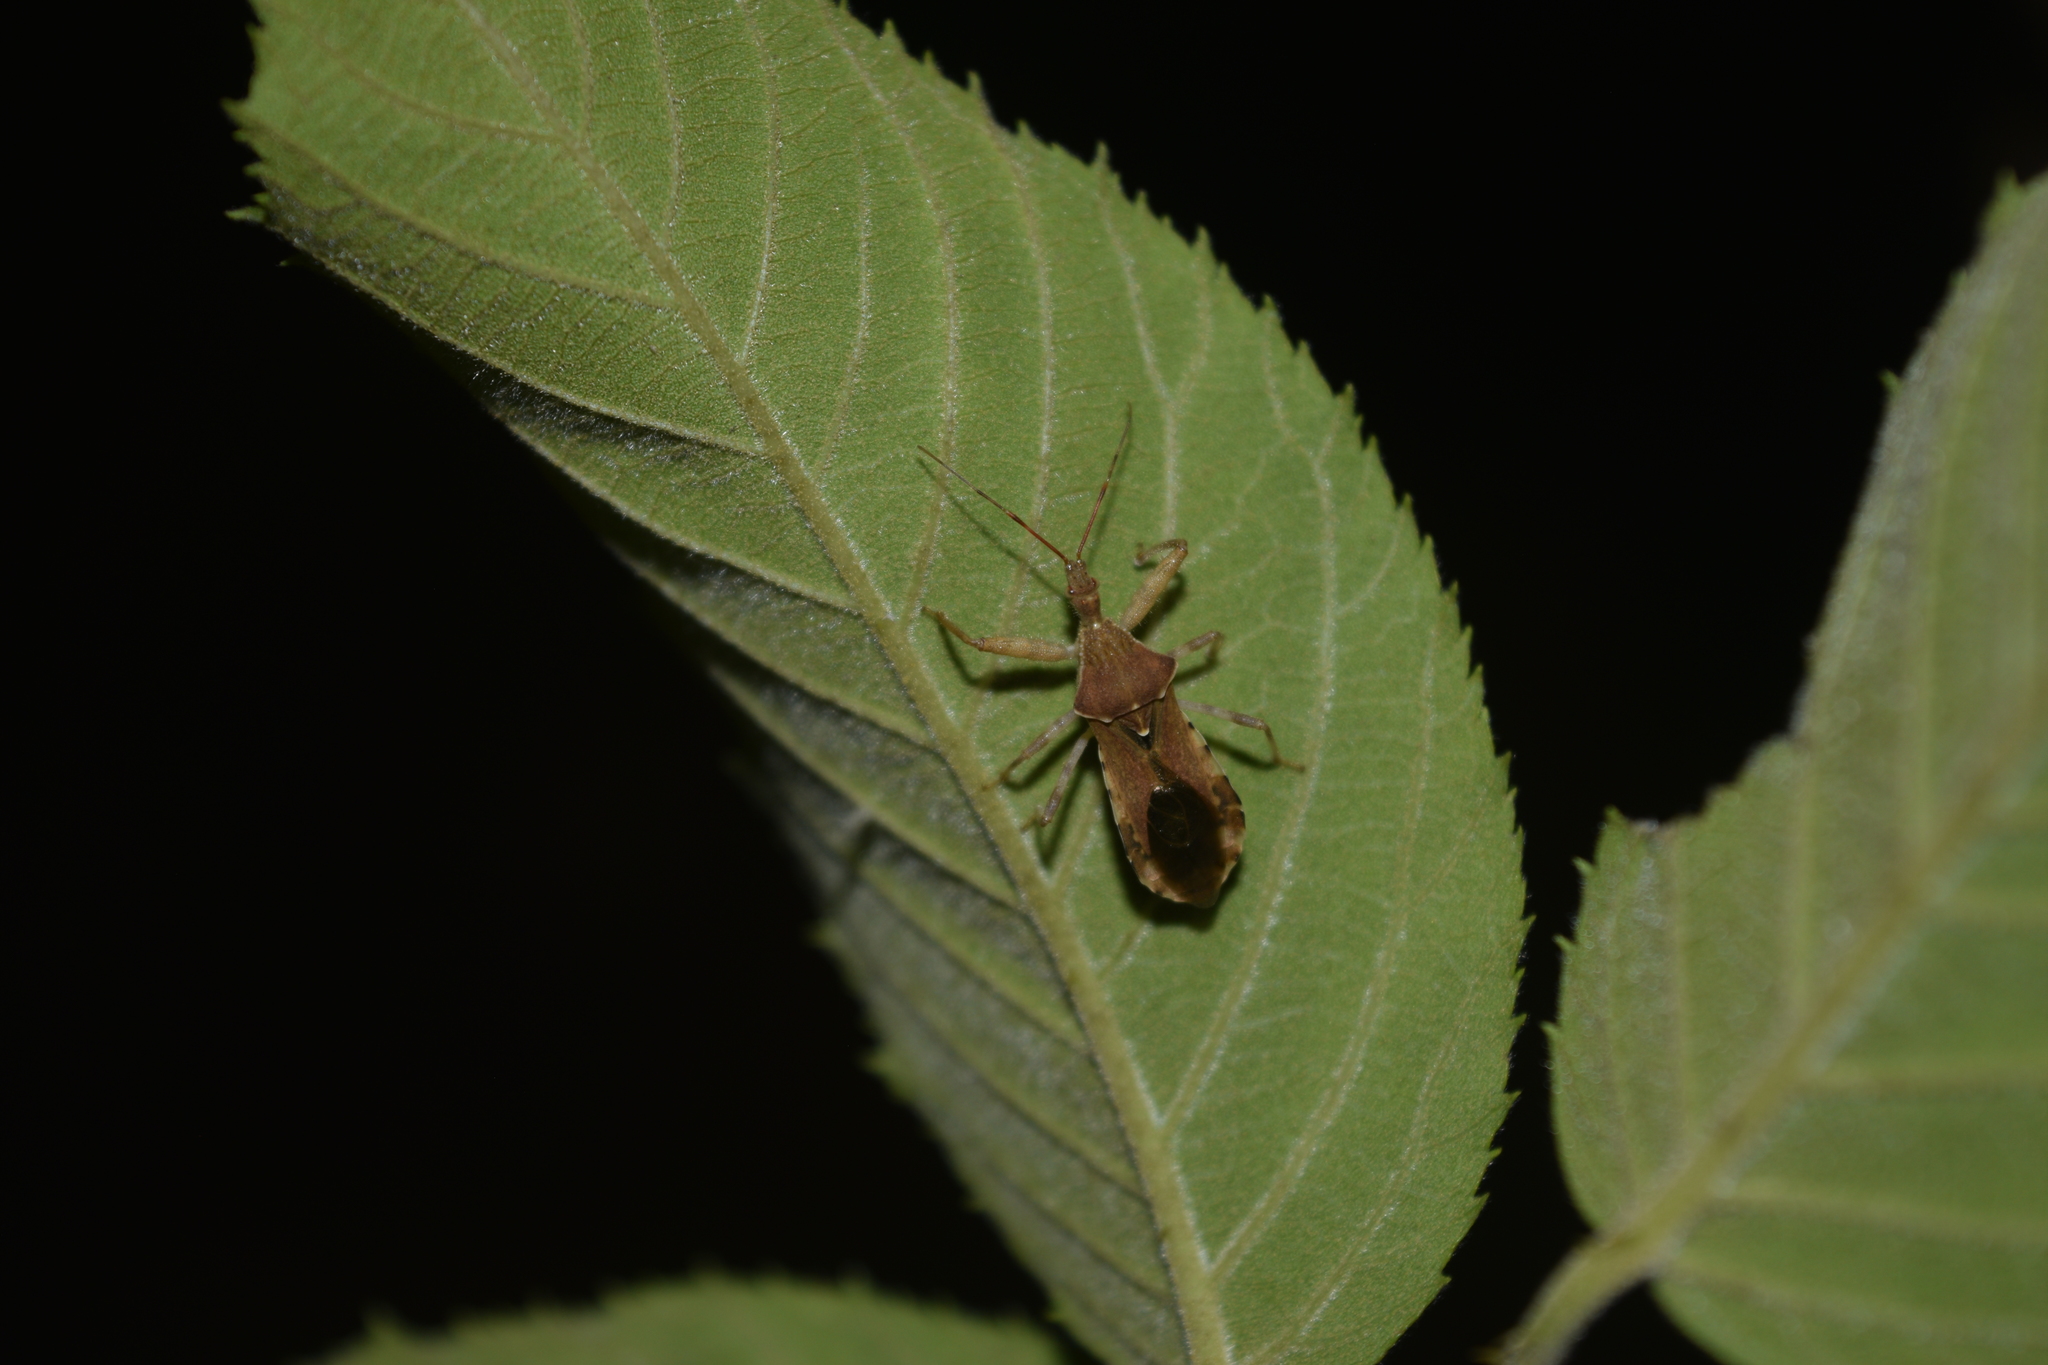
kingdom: Animalia
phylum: Arthropoda
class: Insecta
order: Hemiptera
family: Reduviidae
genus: Acholla
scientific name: Acholla tabida
